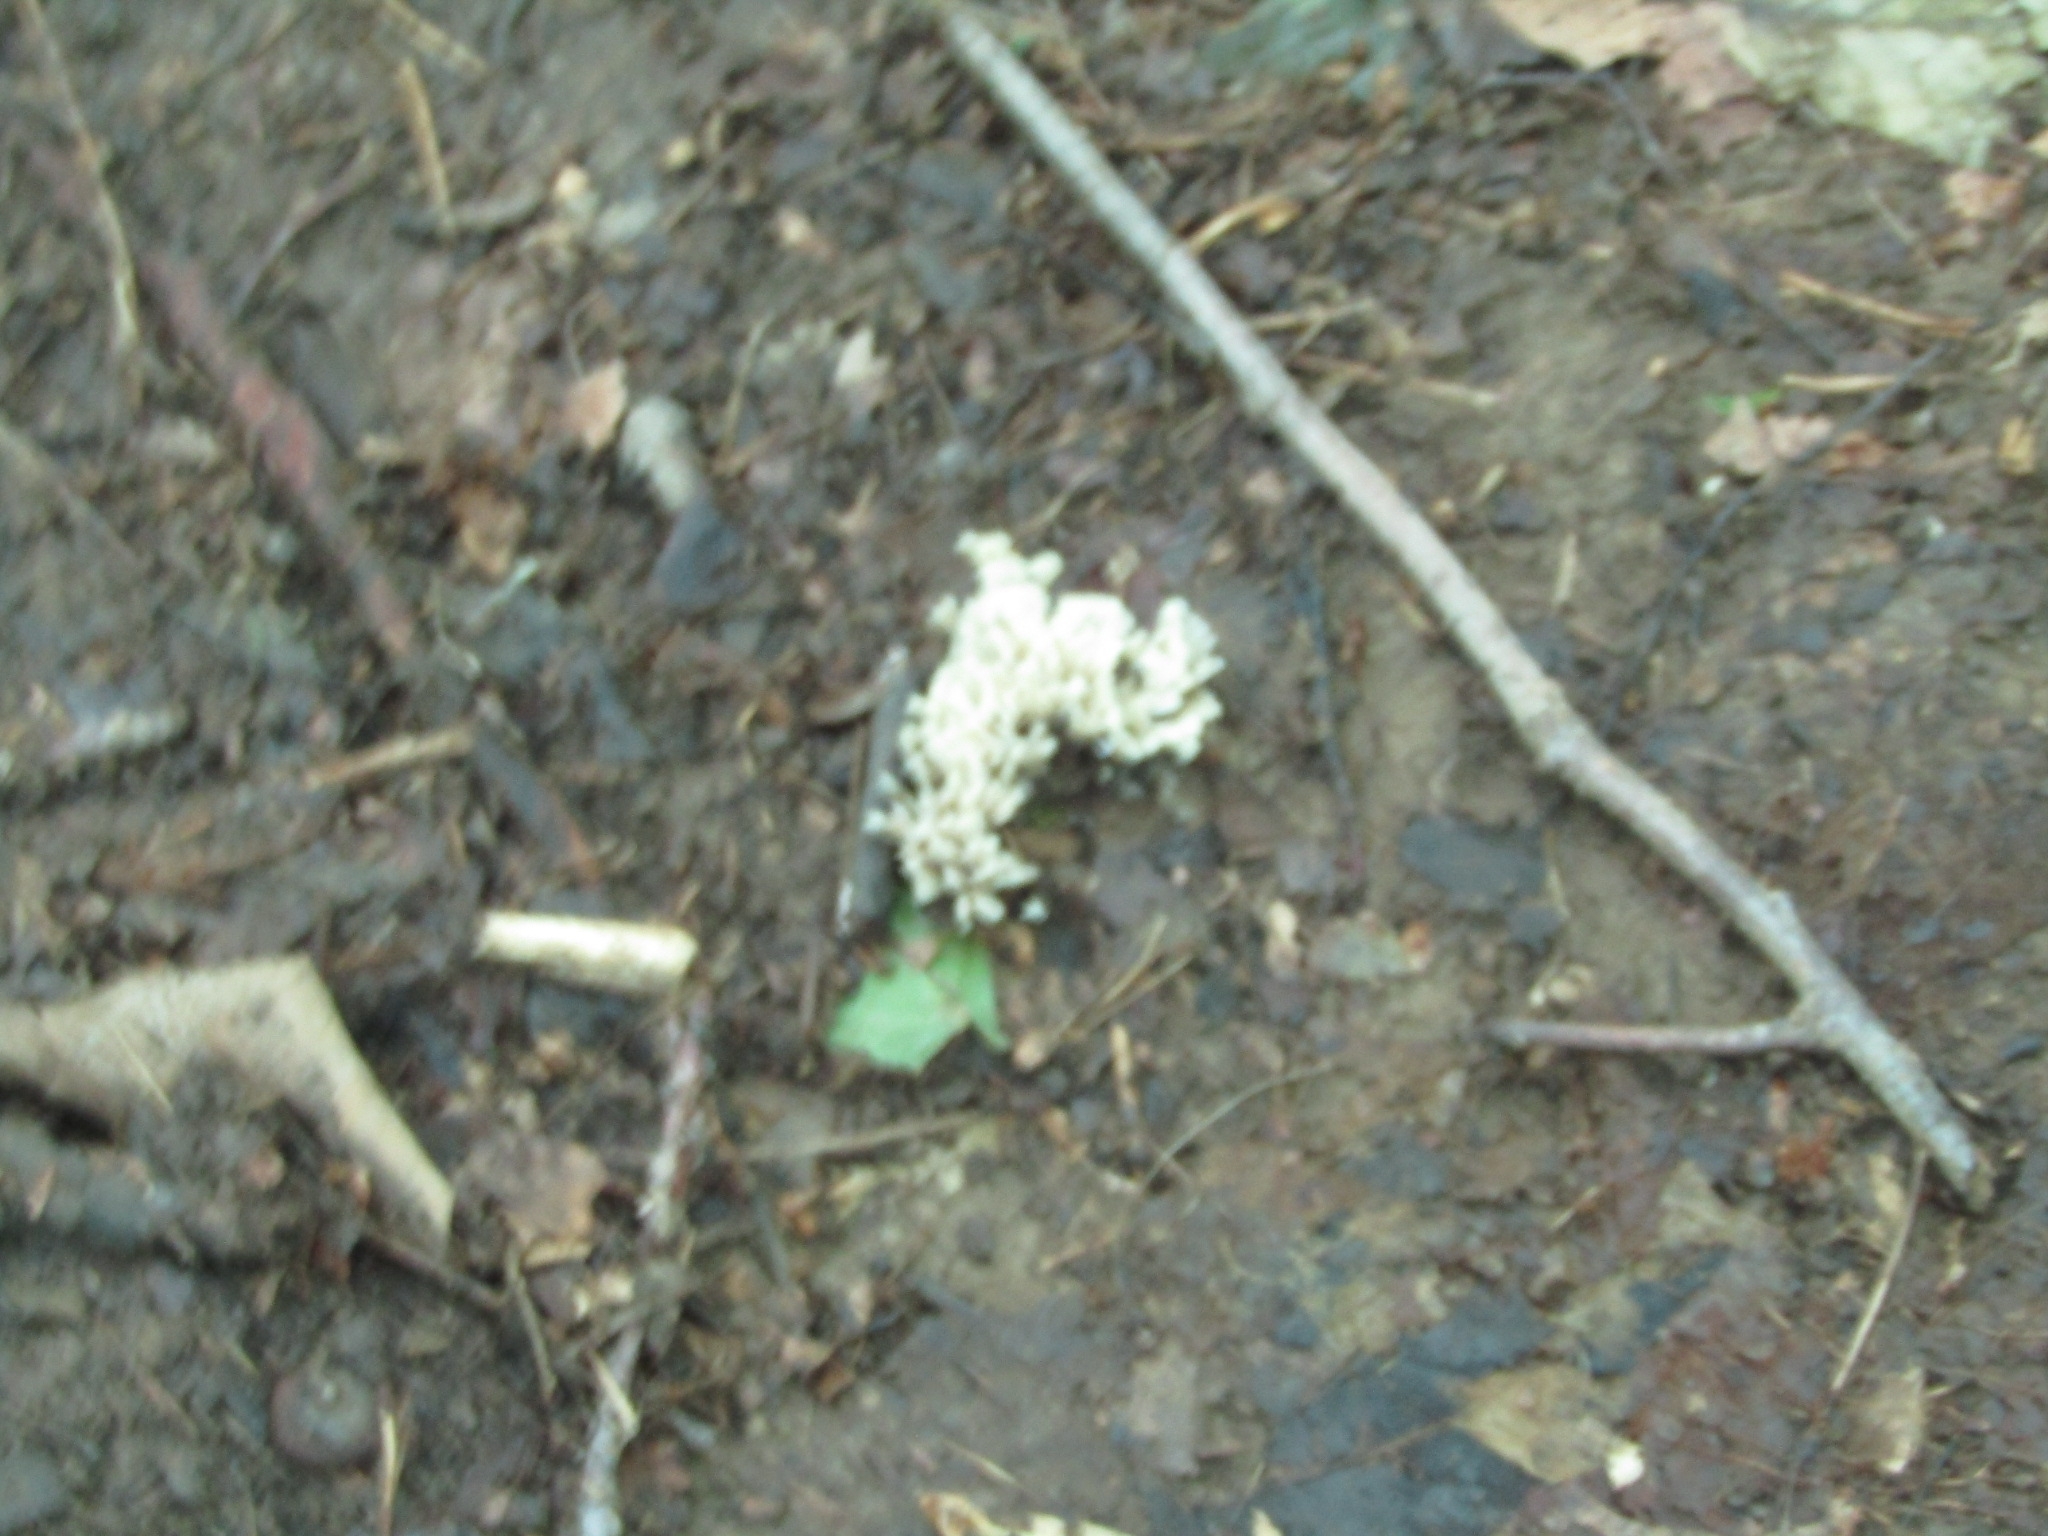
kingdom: Fungi
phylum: Basidiomycota
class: Agaricomycetes
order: Sebacinales
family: Sebacinaceae
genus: Sebacina
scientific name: Sebacina schweinitzii
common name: Jellied false coral fungus
